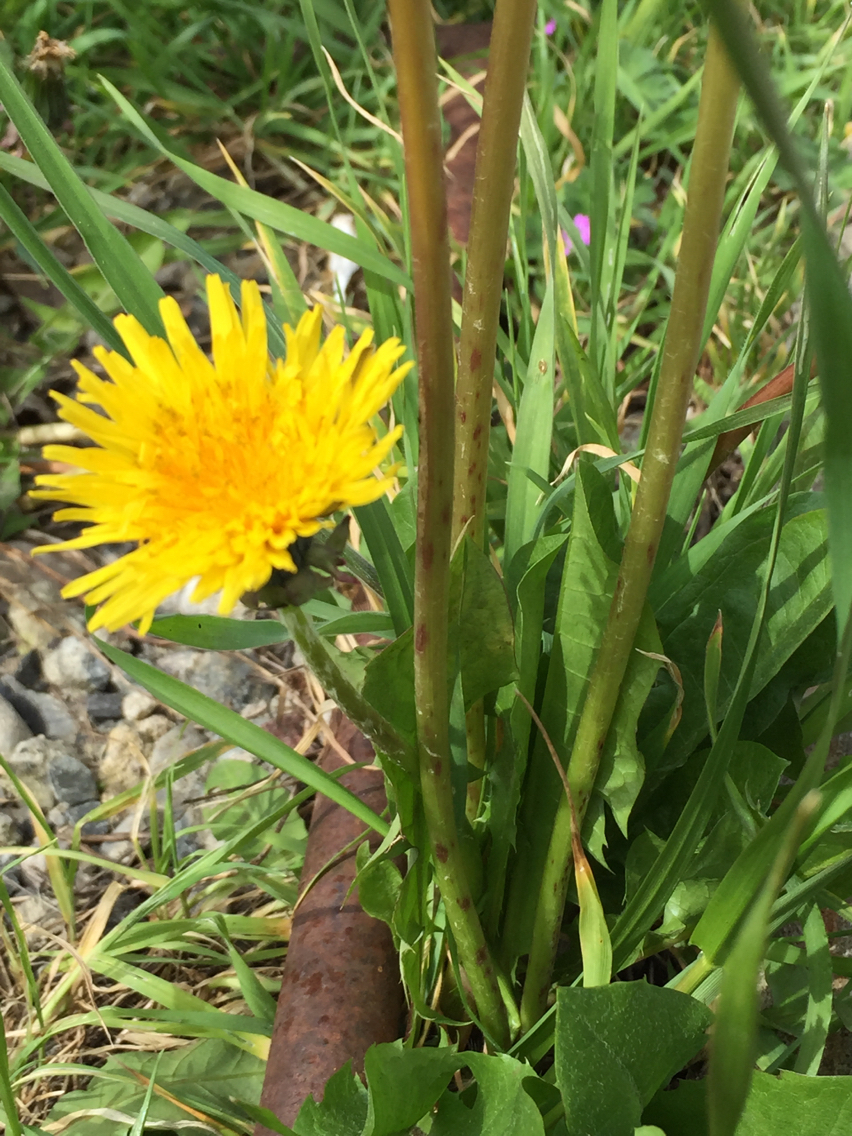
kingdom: Plantae
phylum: Tracheophyta
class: Magnoliopsida
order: Asterales
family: Asteraceae
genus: Taraxacum
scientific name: Taraxacum officinale
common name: Common dandelion
